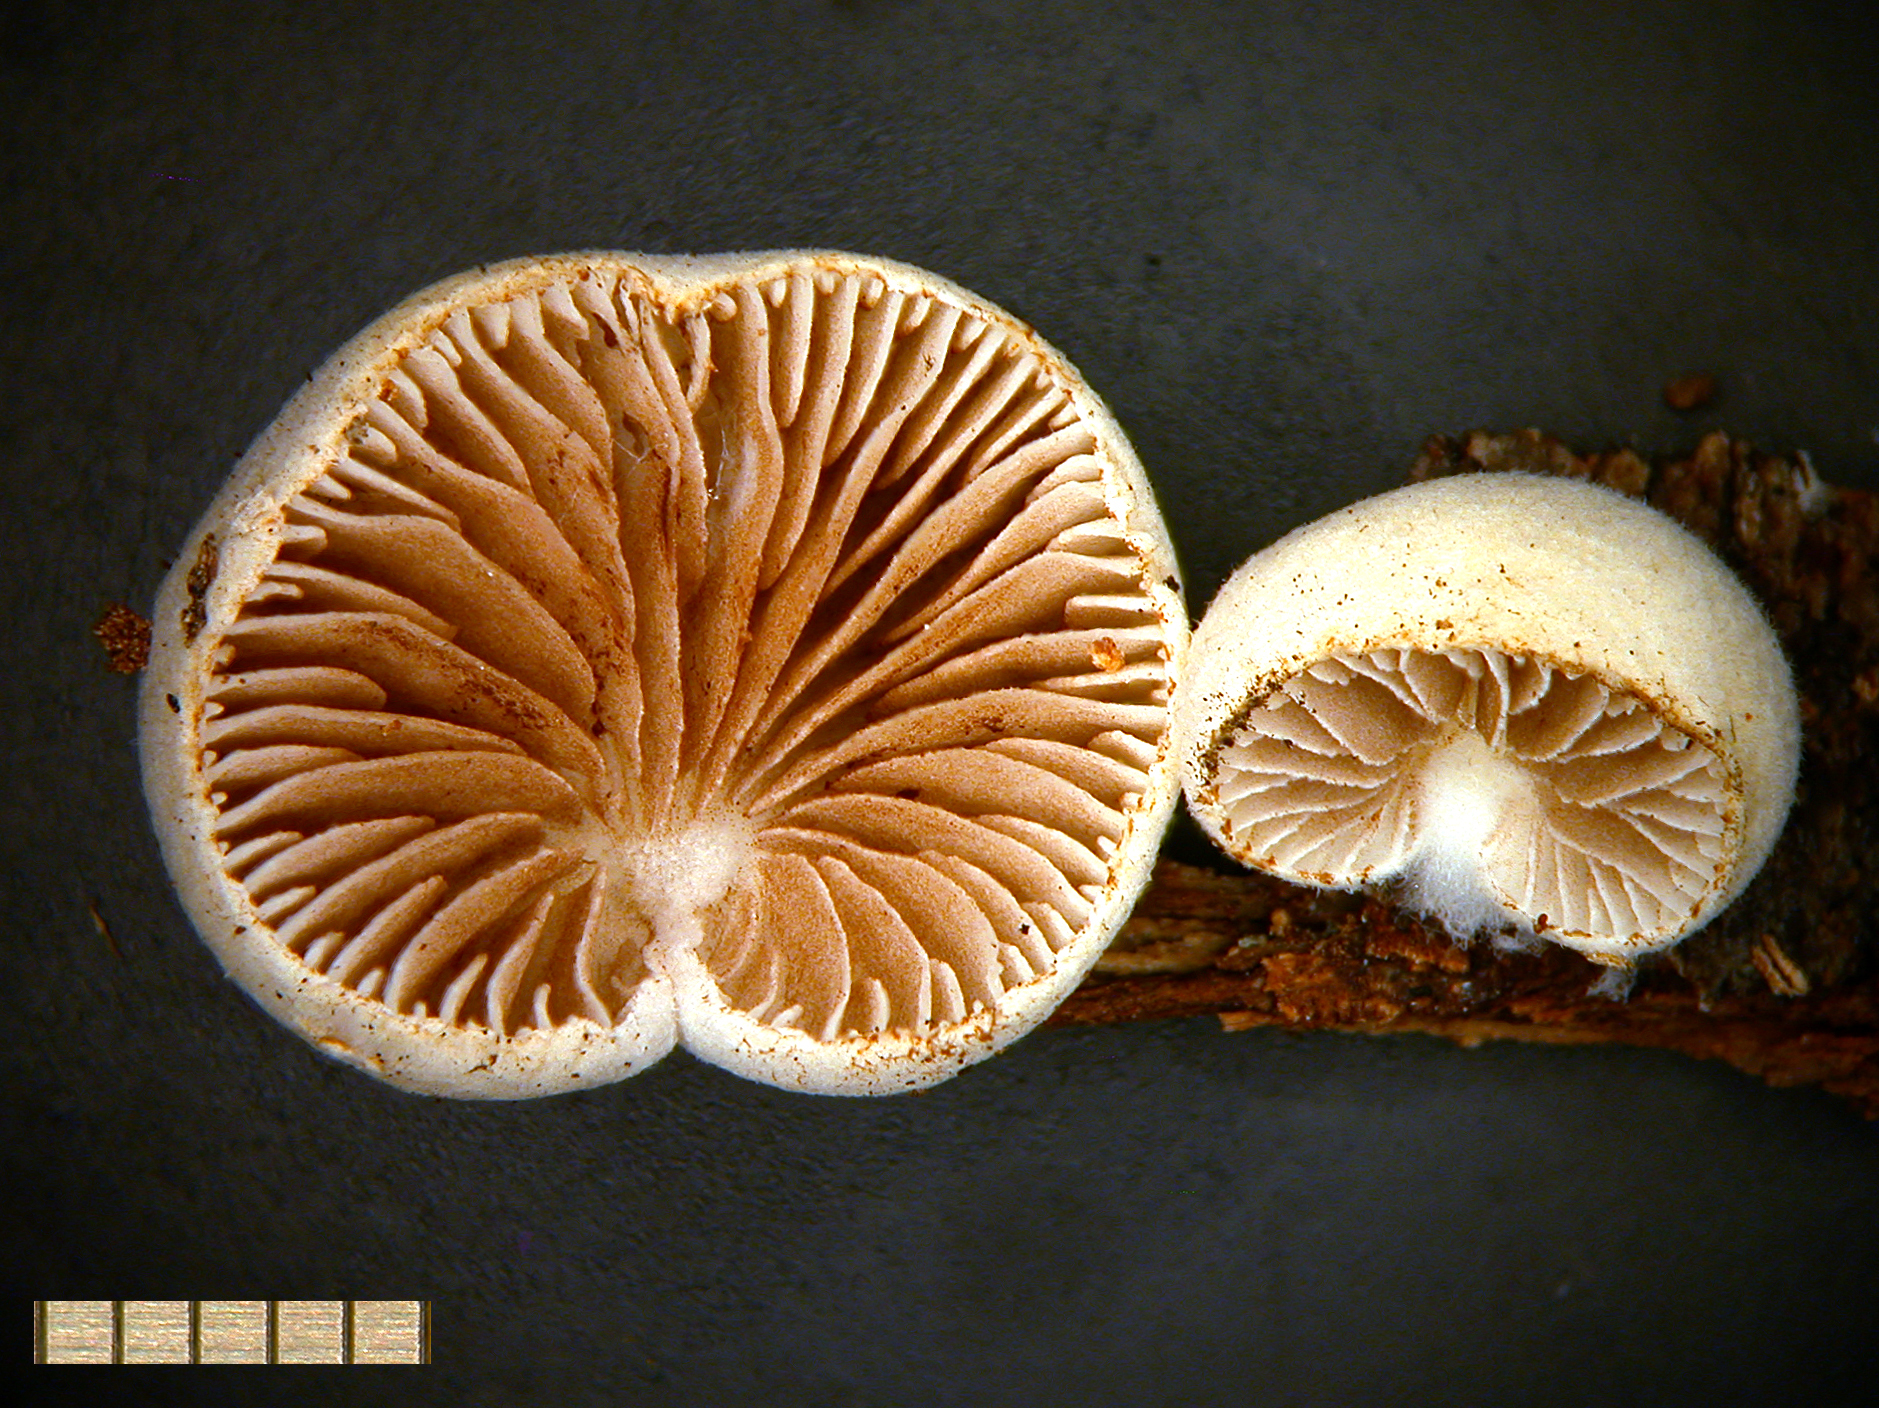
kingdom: Fungi
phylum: Basidiomycota
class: Agaricomycetes
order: Agaricales
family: Crepidotaceae
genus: Crepidotus
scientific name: Crepidotus novae-zelandiae
